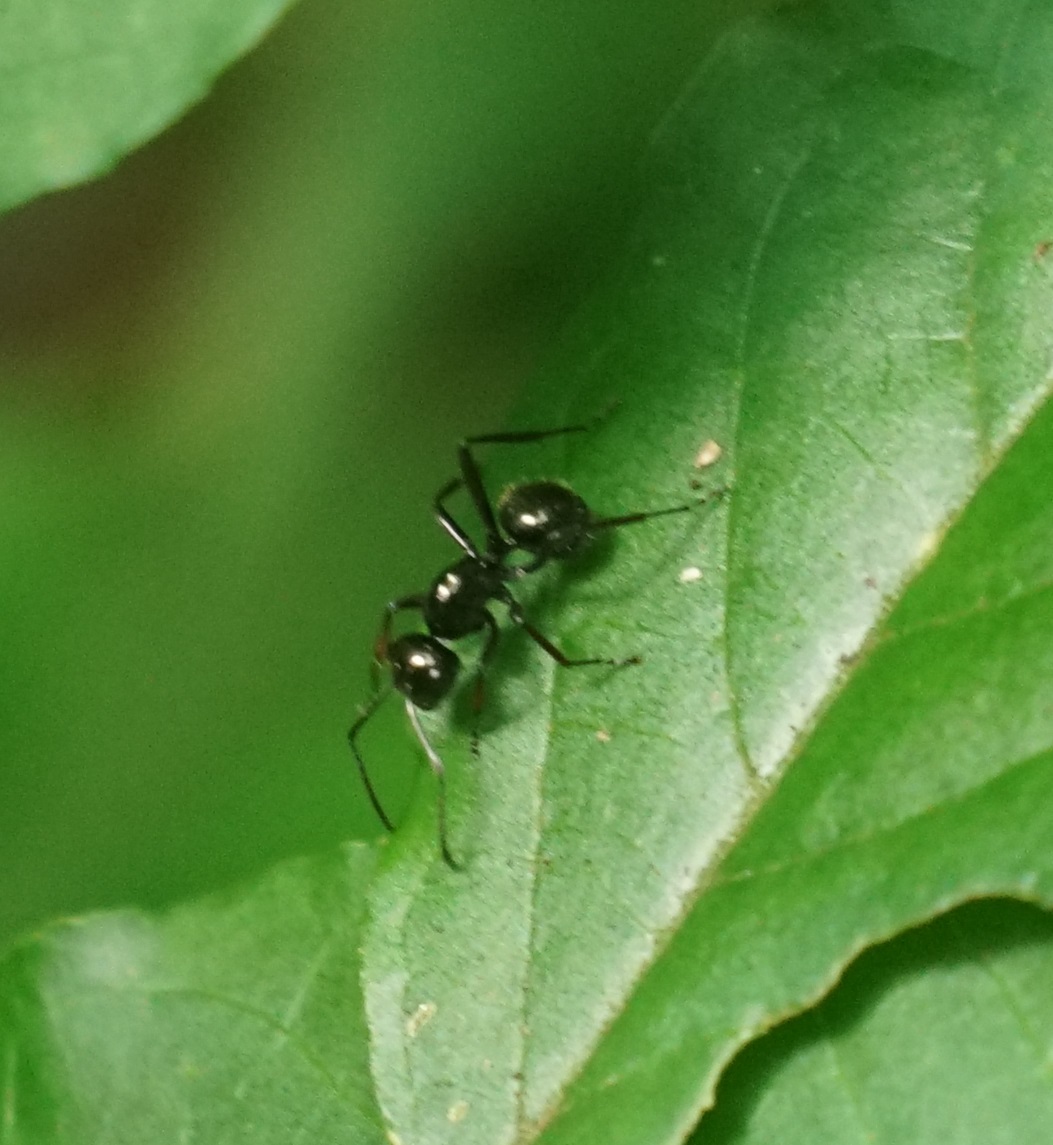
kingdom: Animalia
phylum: Arthropoda
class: Insecta
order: Hymenoptera
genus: Cyrtomyrma
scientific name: Cyrtomyrma
